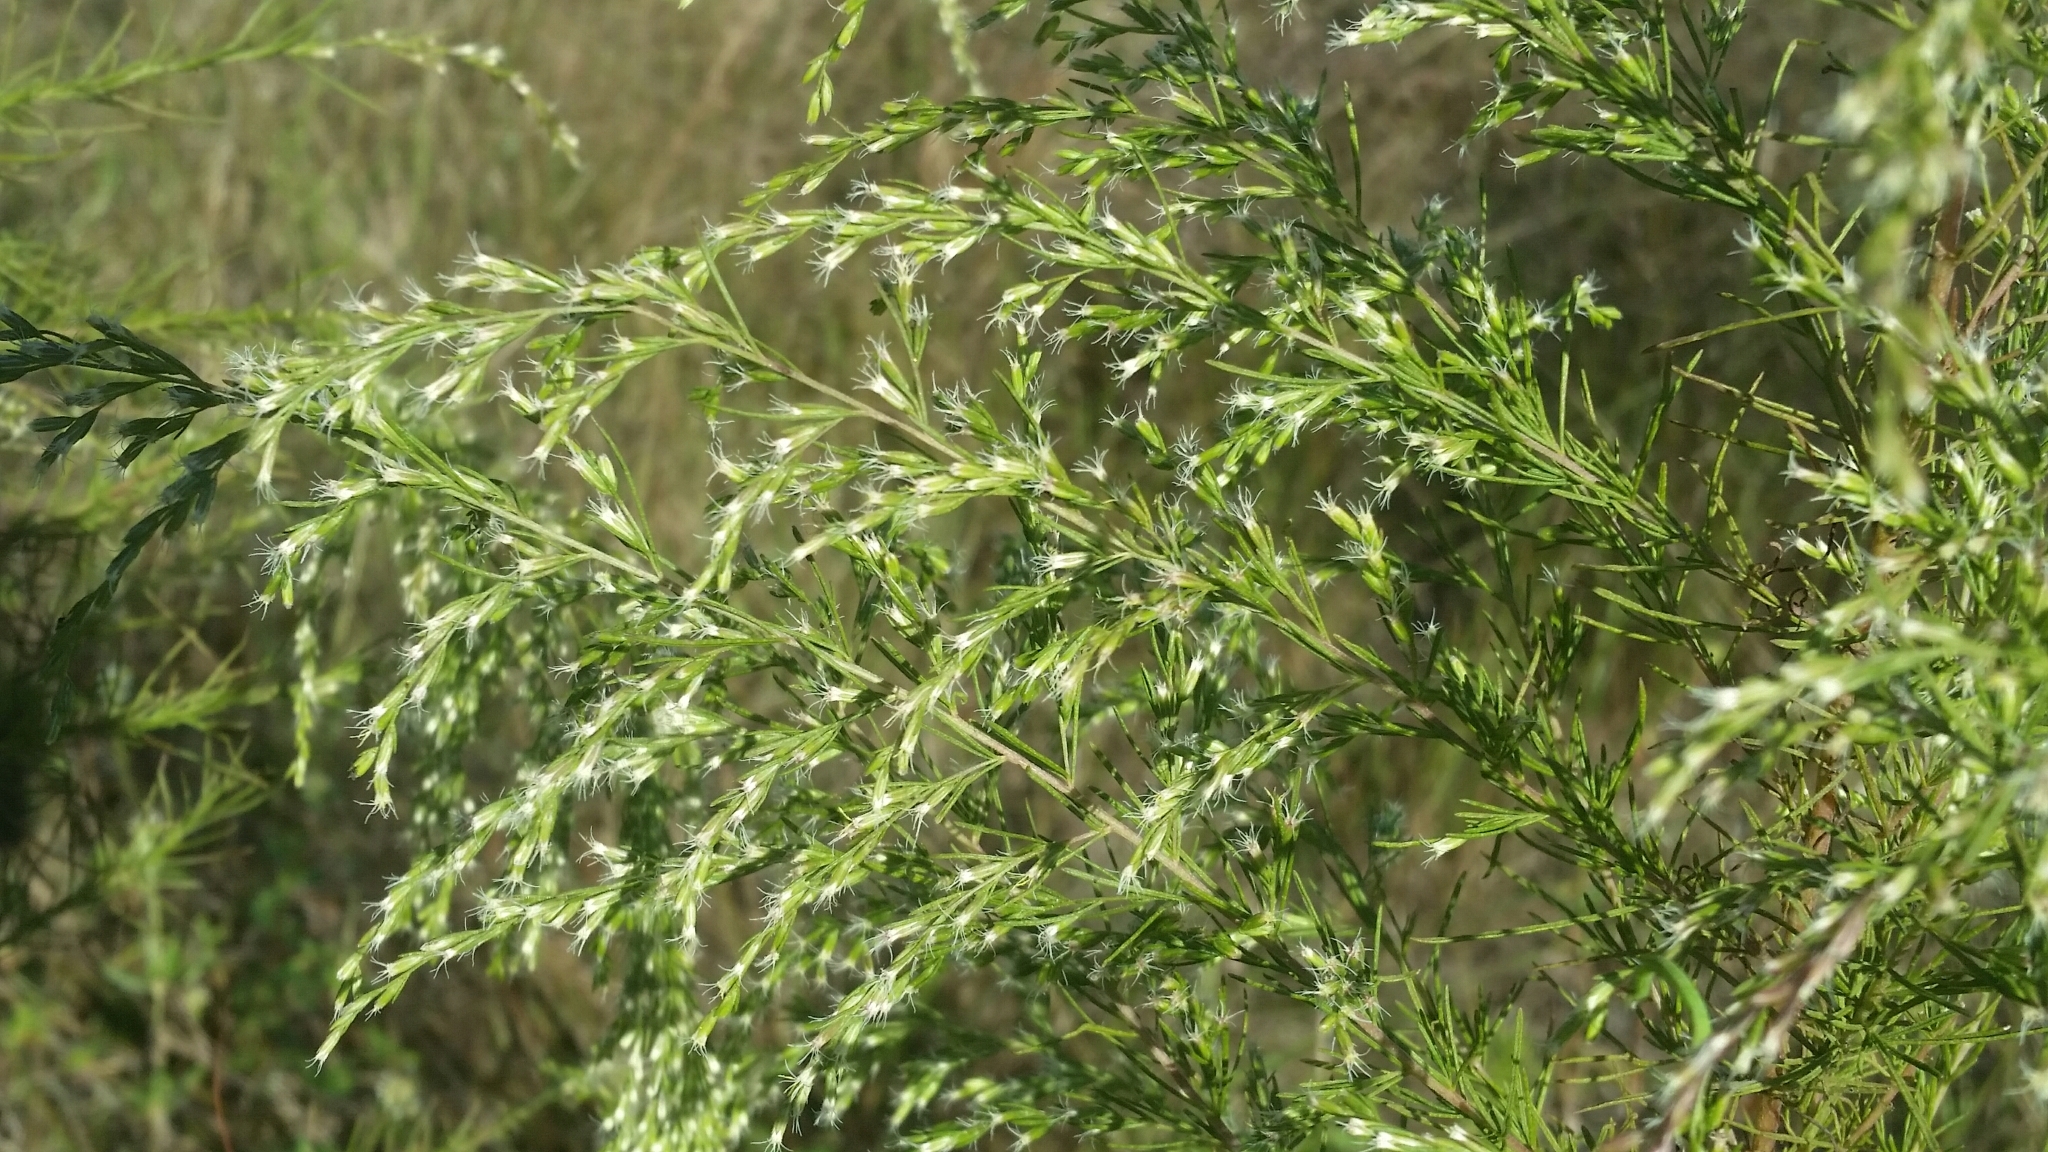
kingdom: Plantae
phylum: Tracheophyta
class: Magnoliopsida
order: Asterales
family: Asteraceae
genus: Eupatorium
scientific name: Eupatorium capillifolium
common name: Dog-fennel
